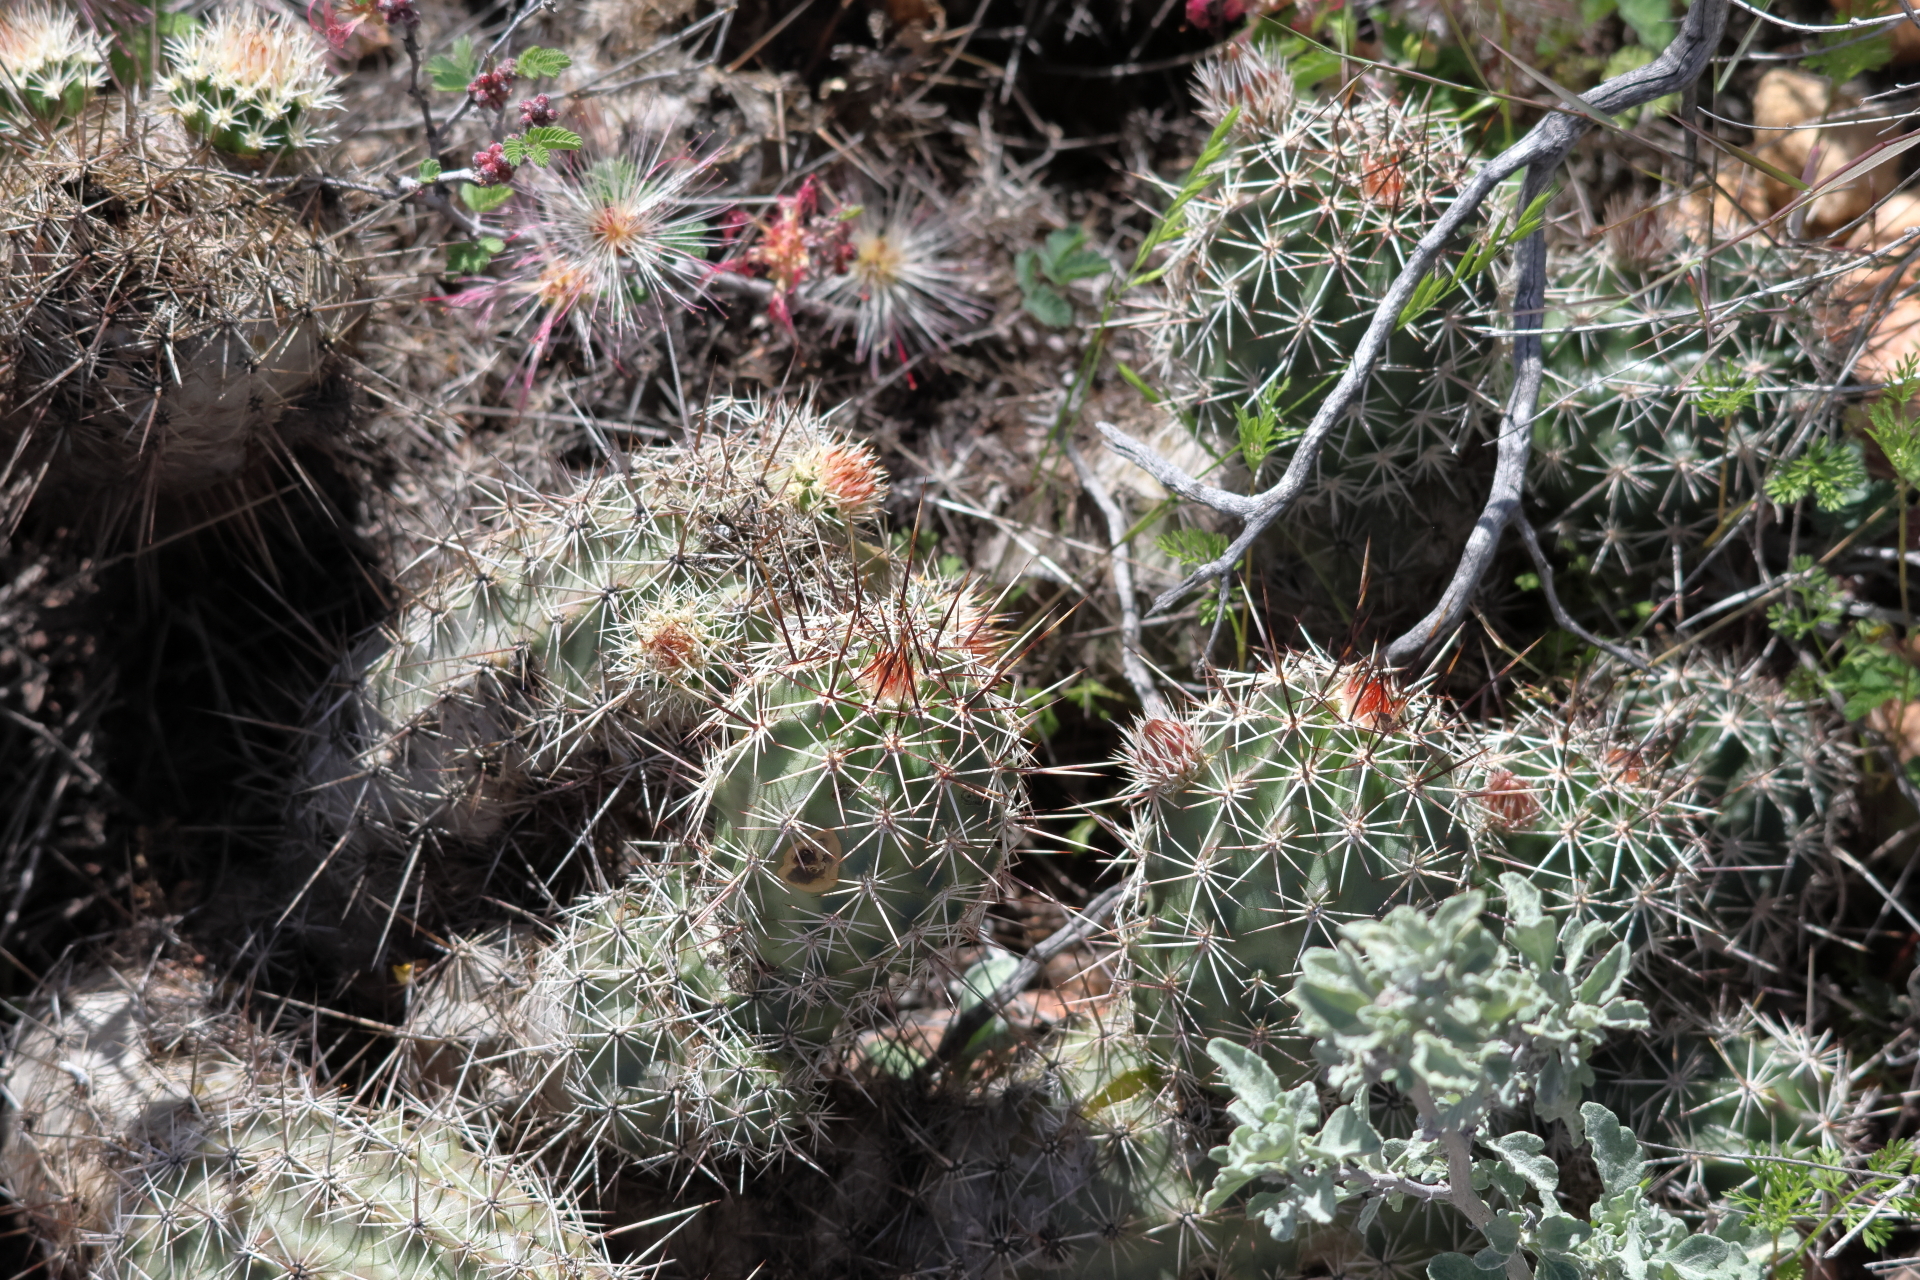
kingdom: Plantae
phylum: Tracheophyta
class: Magnoliopsida
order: Caryophyllales
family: Cactaceae
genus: Echinocereus
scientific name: Echinocereus fasciculatus
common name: Bundle hedgehog
